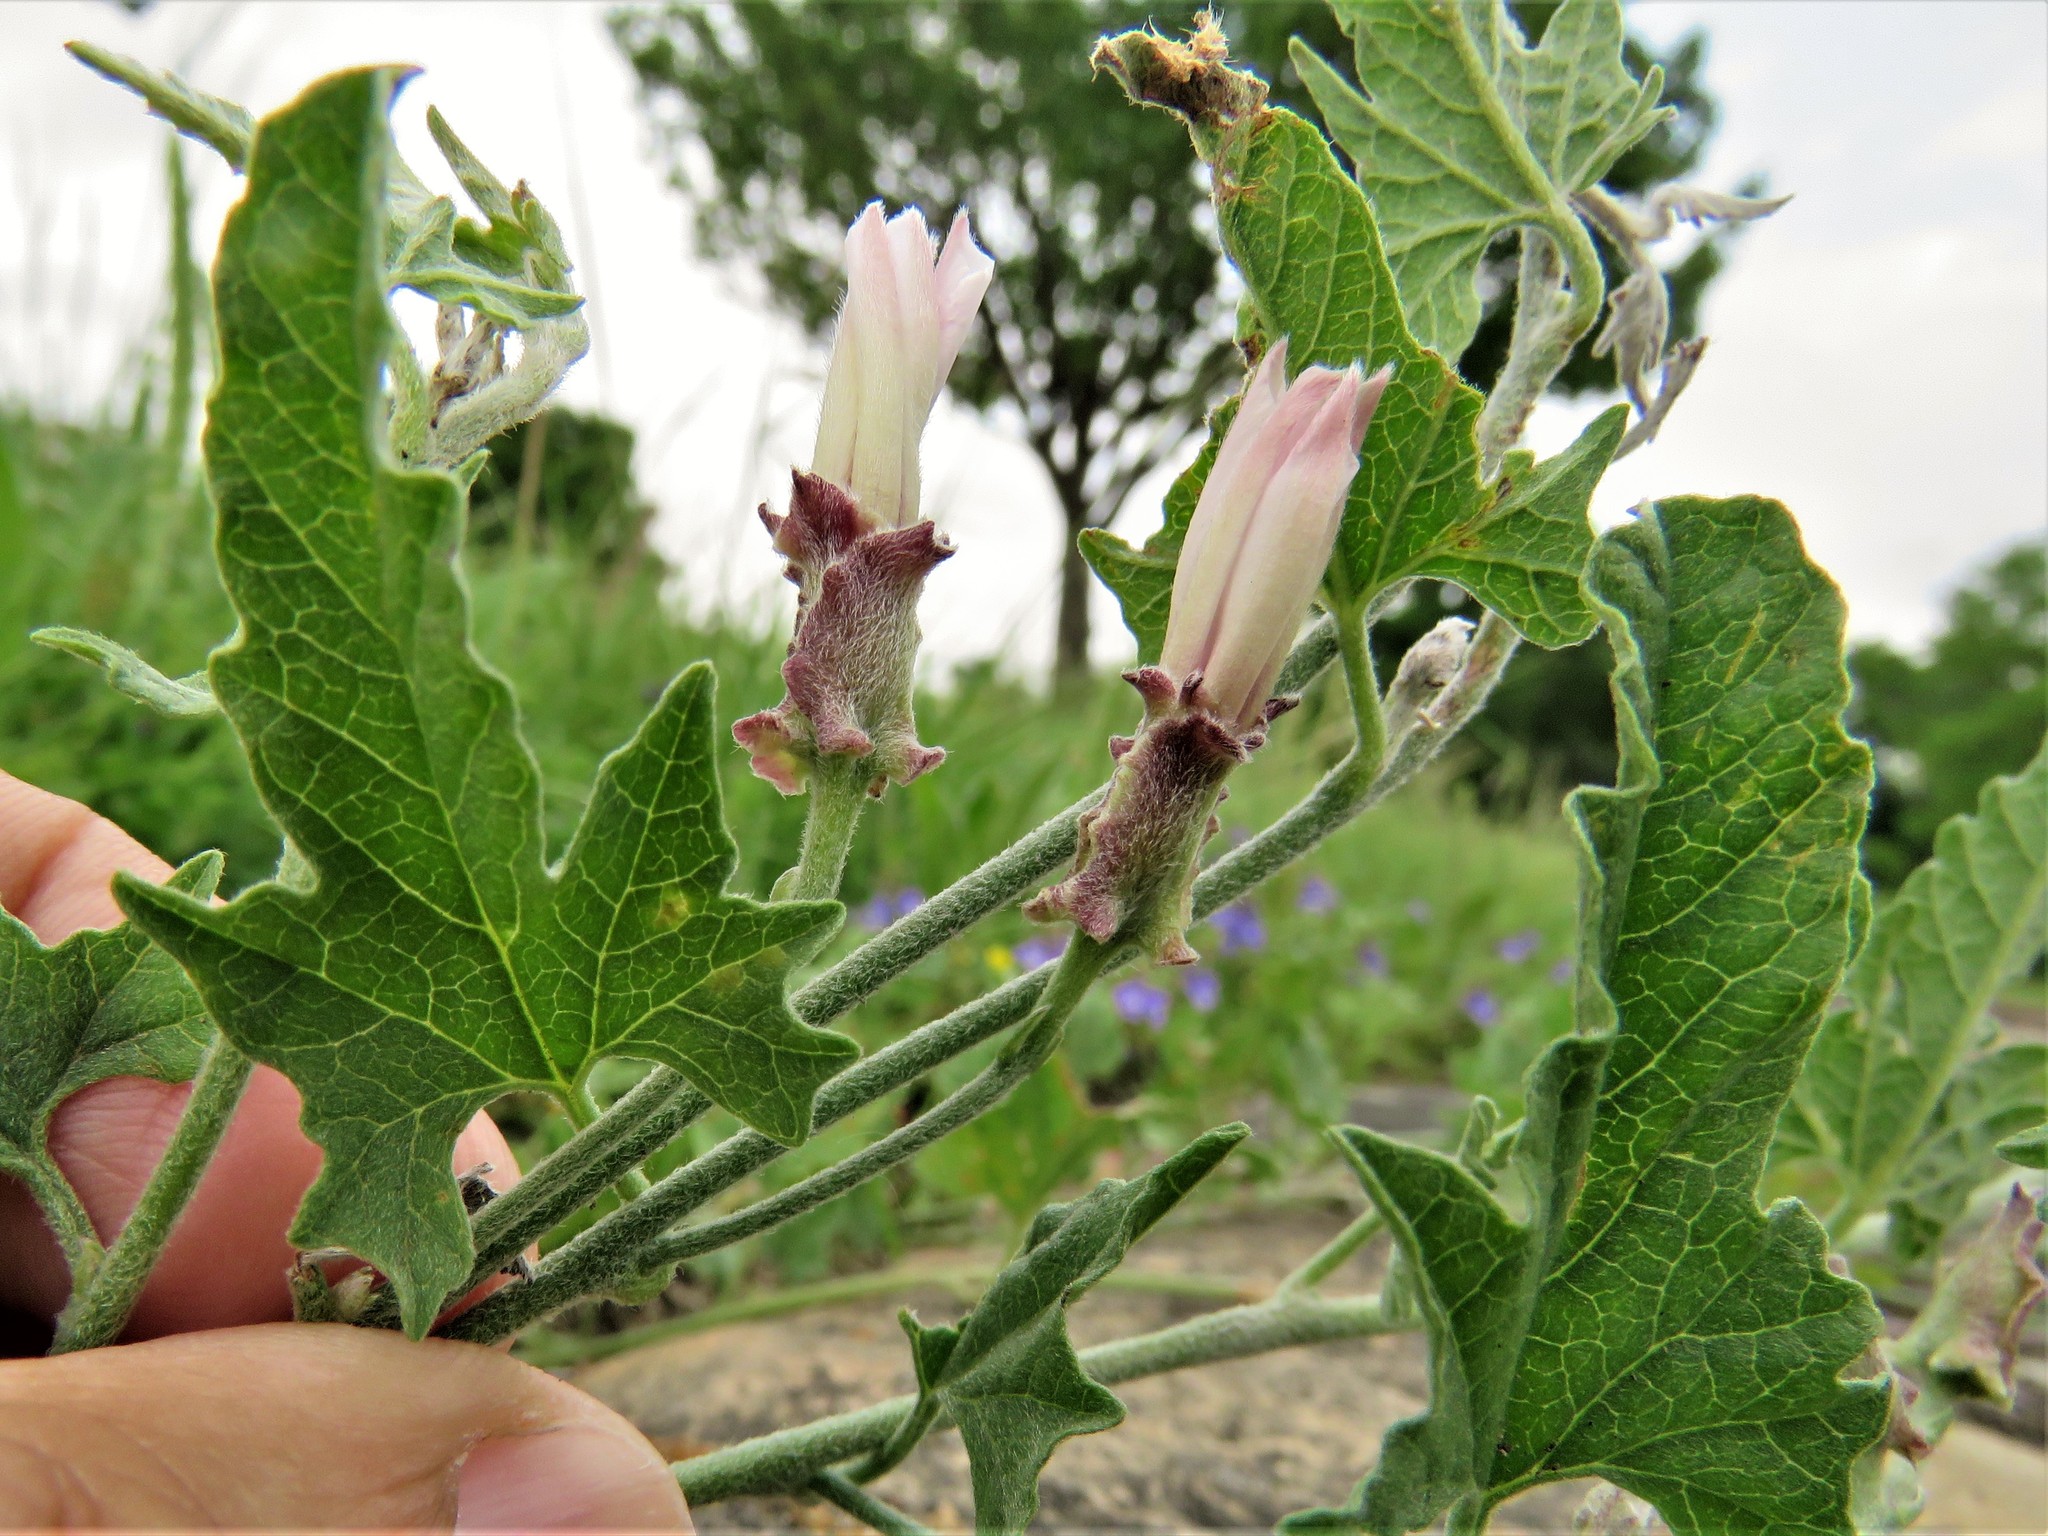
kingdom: Plantae
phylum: Tracheophyta
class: Magnoliopsida
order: Solanales
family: Convolvulaceae
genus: Convolvulus
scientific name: Convolvulus equitans
